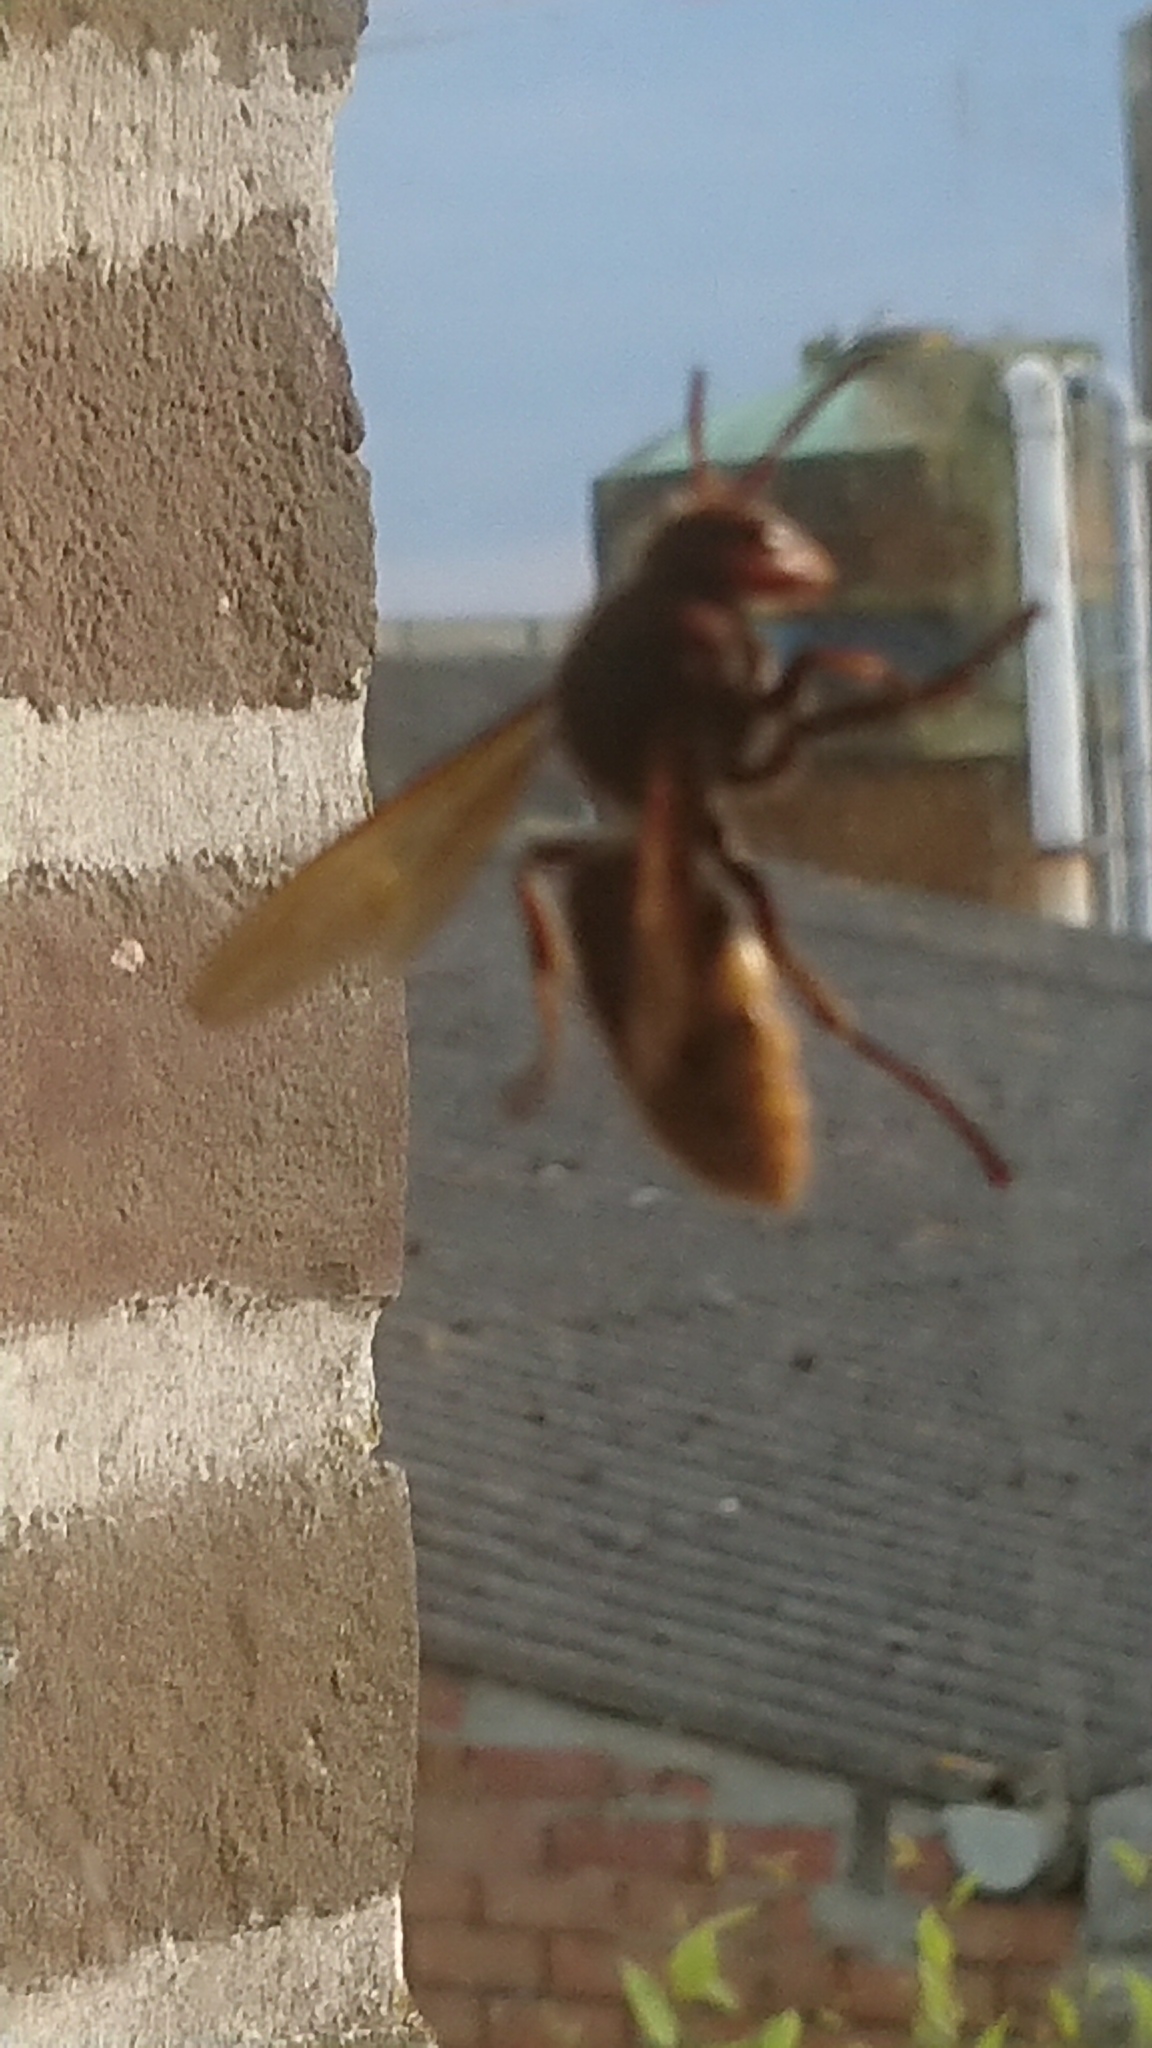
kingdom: Animalia
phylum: Arthropoda
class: Insecta
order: Hymenoptera
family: Vespidae
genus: Vespa
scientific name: Vespa crabro
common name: Hornet
